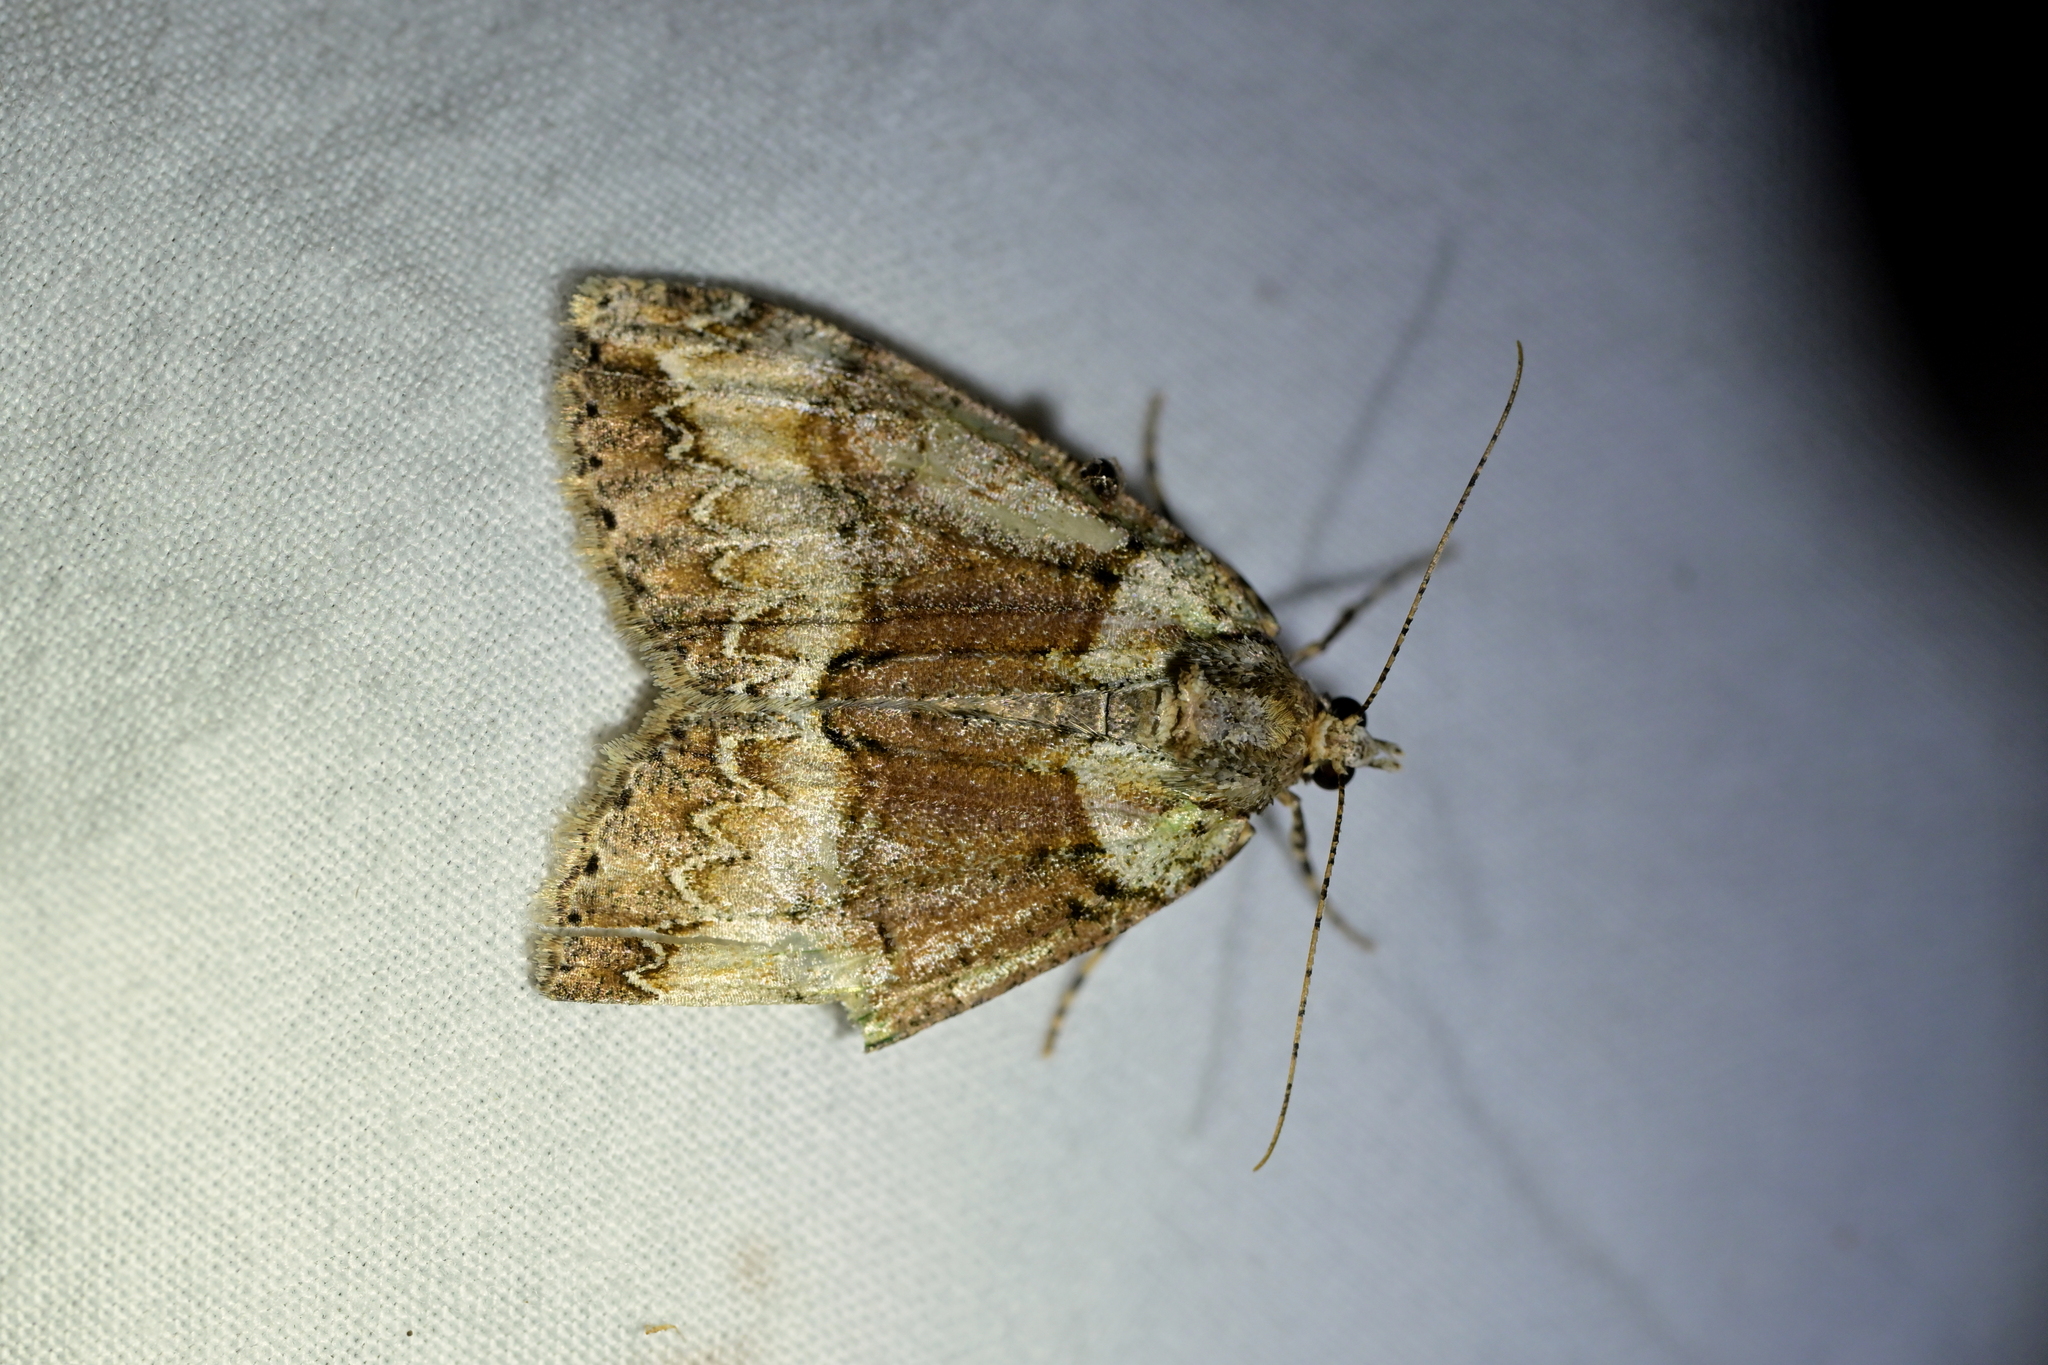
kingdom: Animalia
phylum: Arthropoda
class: Insecta
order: Lepidoptera
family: Geometridae
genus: Pseudocoremia
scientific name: Pseudocoremia suavis
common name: Common forest looper
